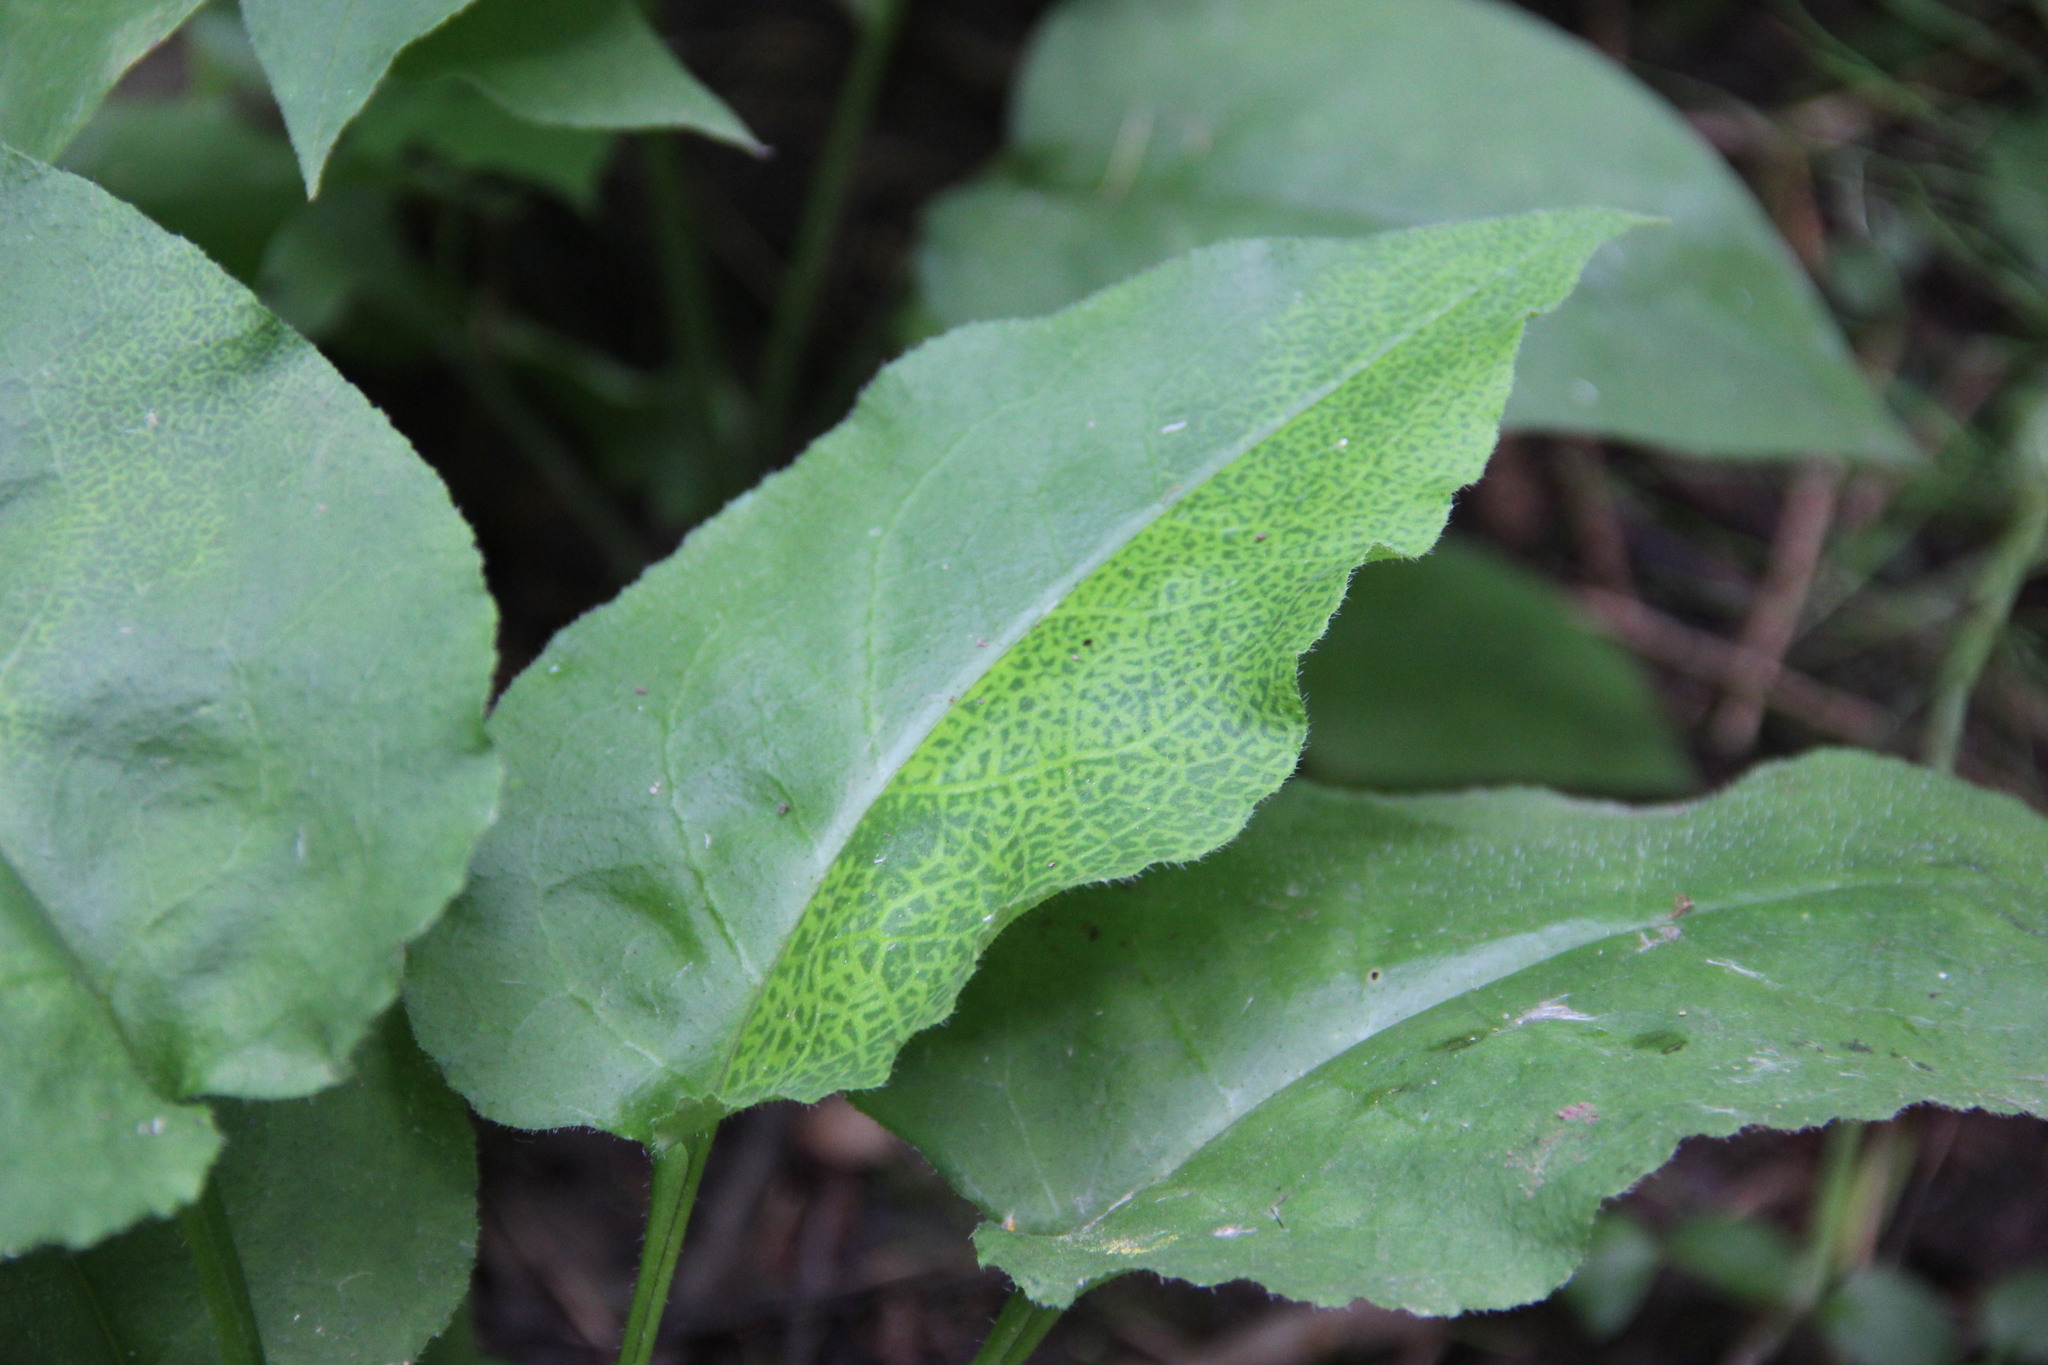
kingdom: Plantae
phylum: Tracheophyta
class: Magnoliopsida
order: Boraginales
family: Boraginaceae
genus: Pulmonaria
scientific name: Pulmonaria obscura
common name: Suffolk lungwort
